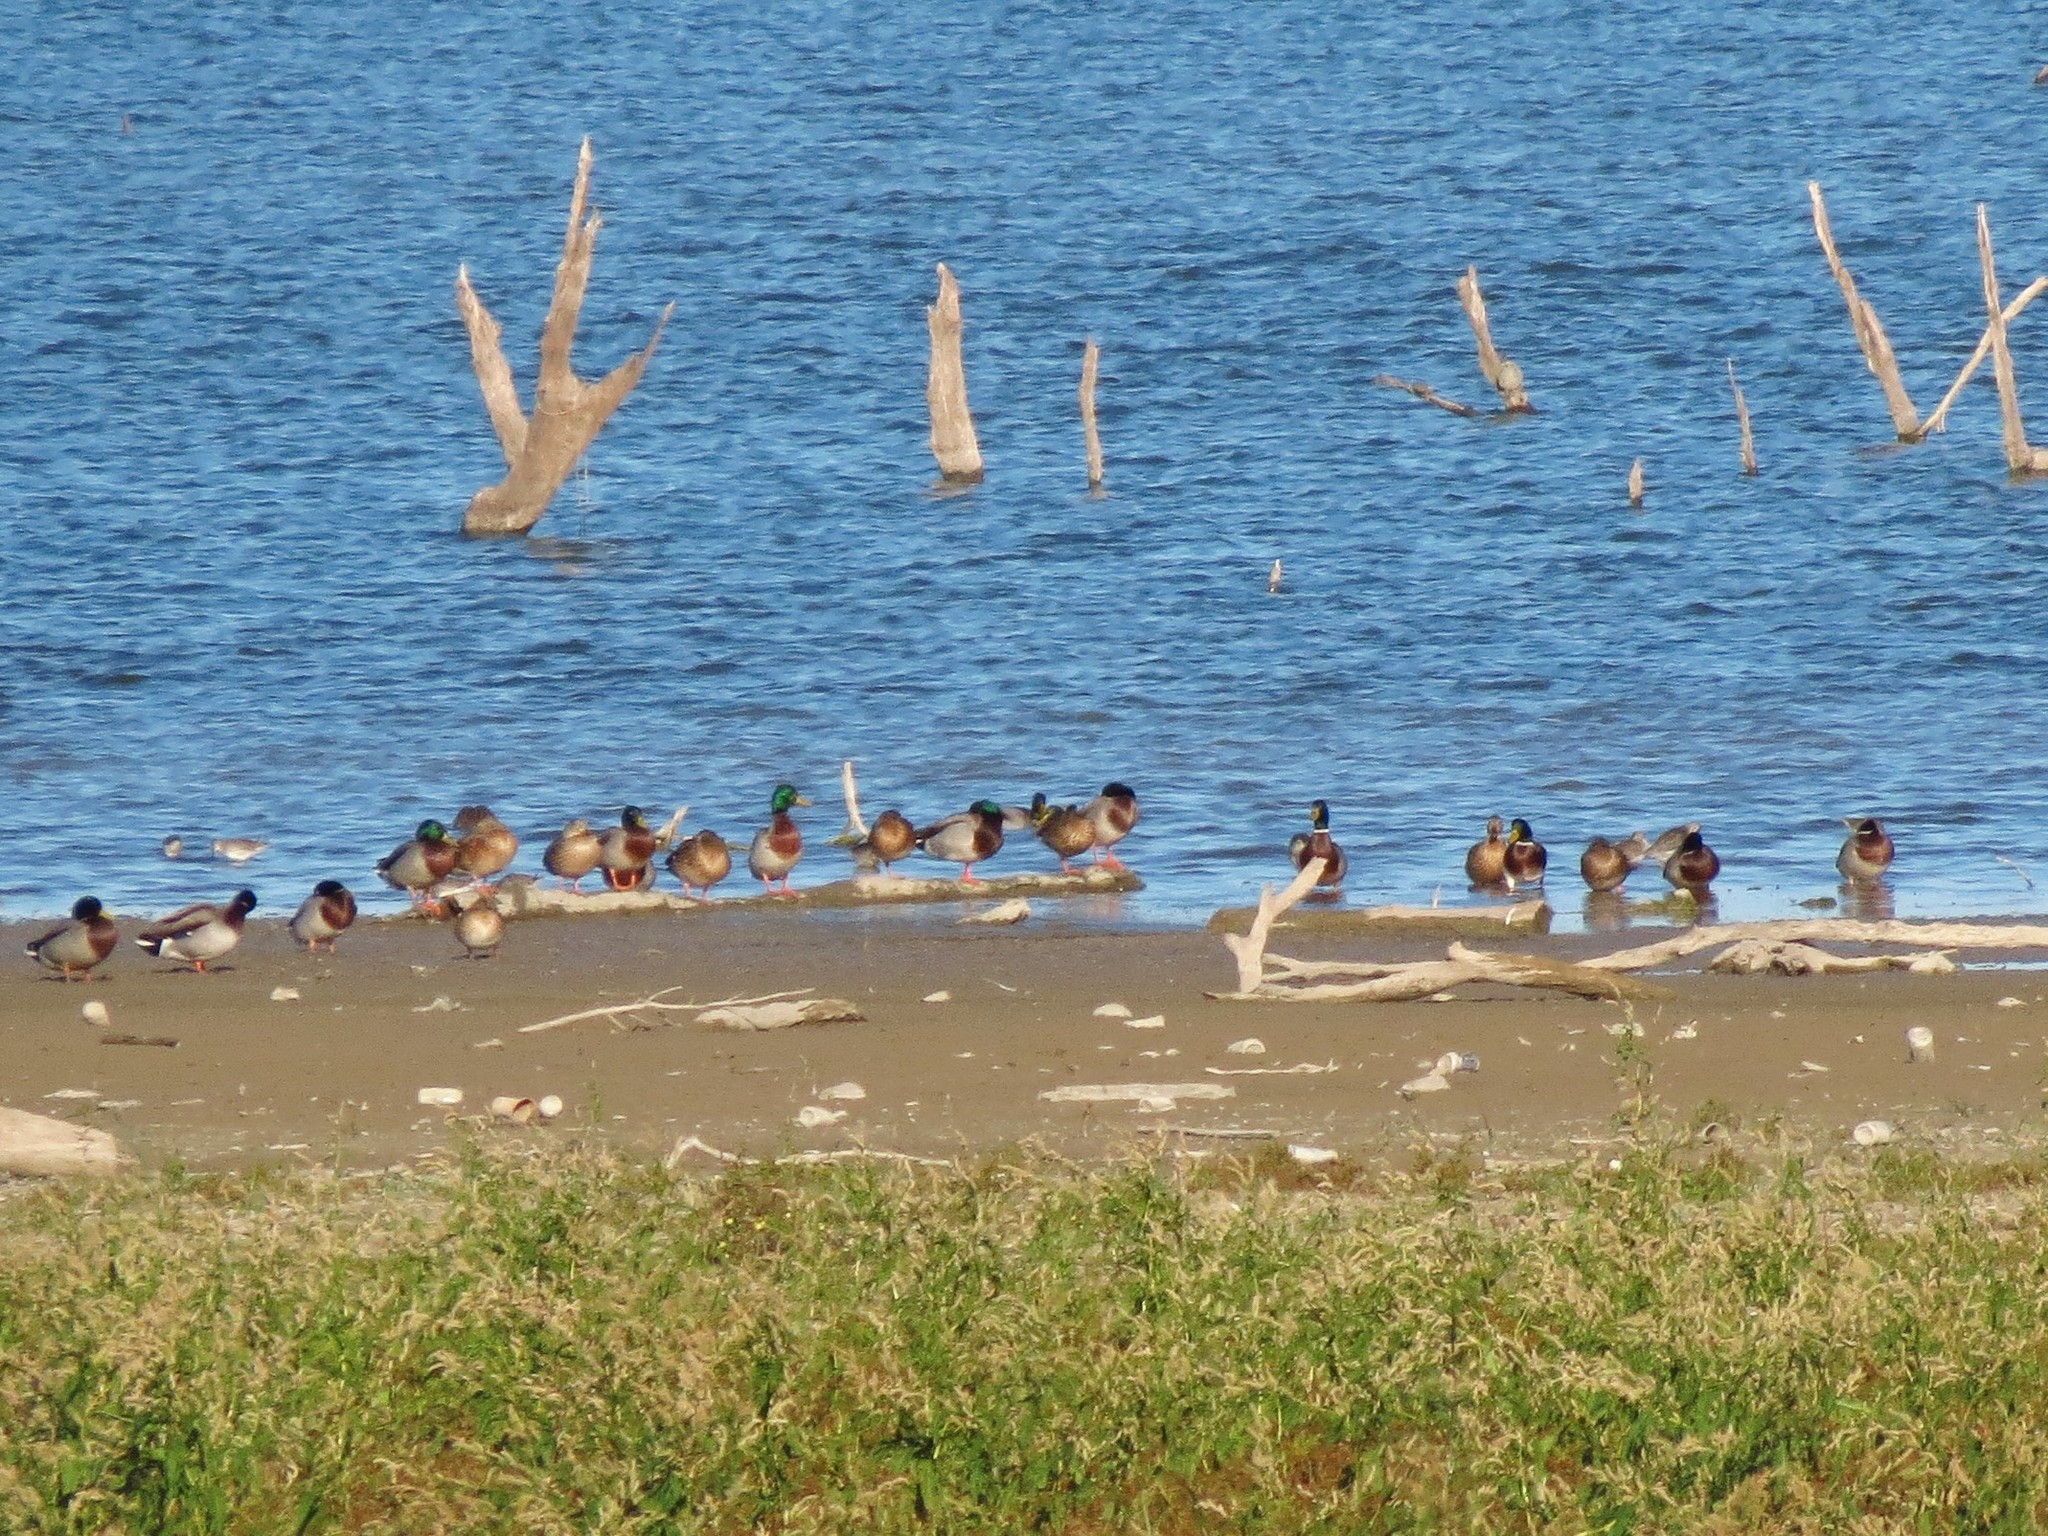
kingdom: Animalia
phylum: Chordata
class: Aves
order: Anseriformes
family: Anatidae
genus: Anas
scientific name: Anas platyrhynchos
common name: Mallard
